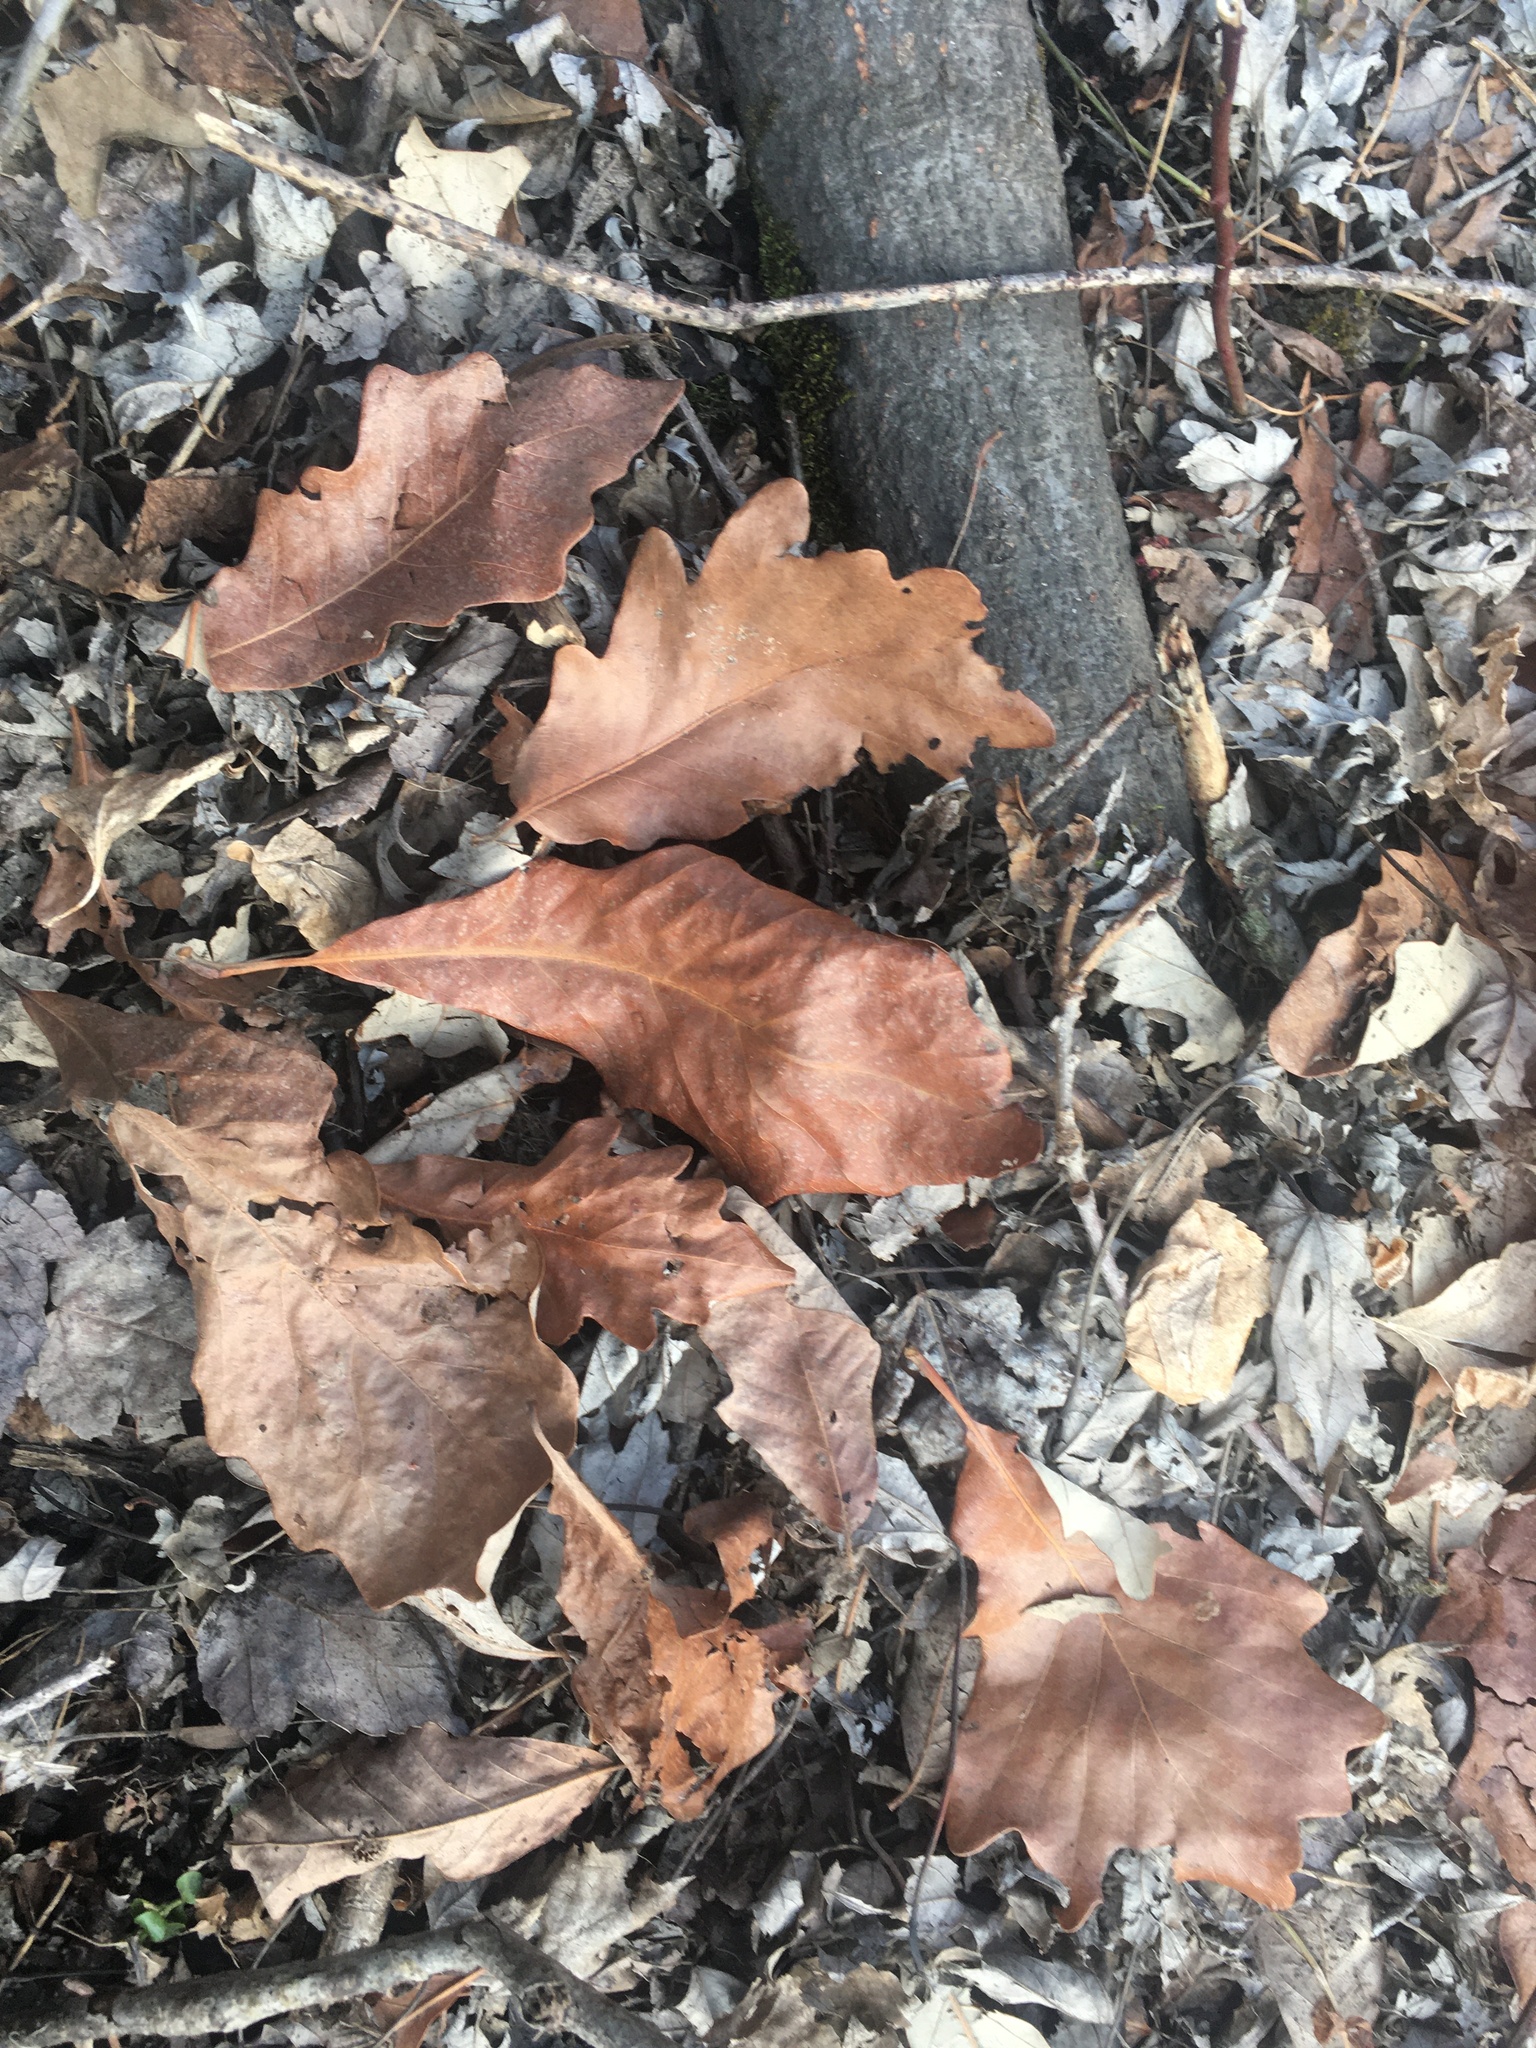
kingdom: Plantae
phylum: Tracheophyta
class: Magnoliopsida
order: Fagales
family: Fagaceae
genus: Quercus
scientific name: Quercus bicolor
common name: Swamp white oak
